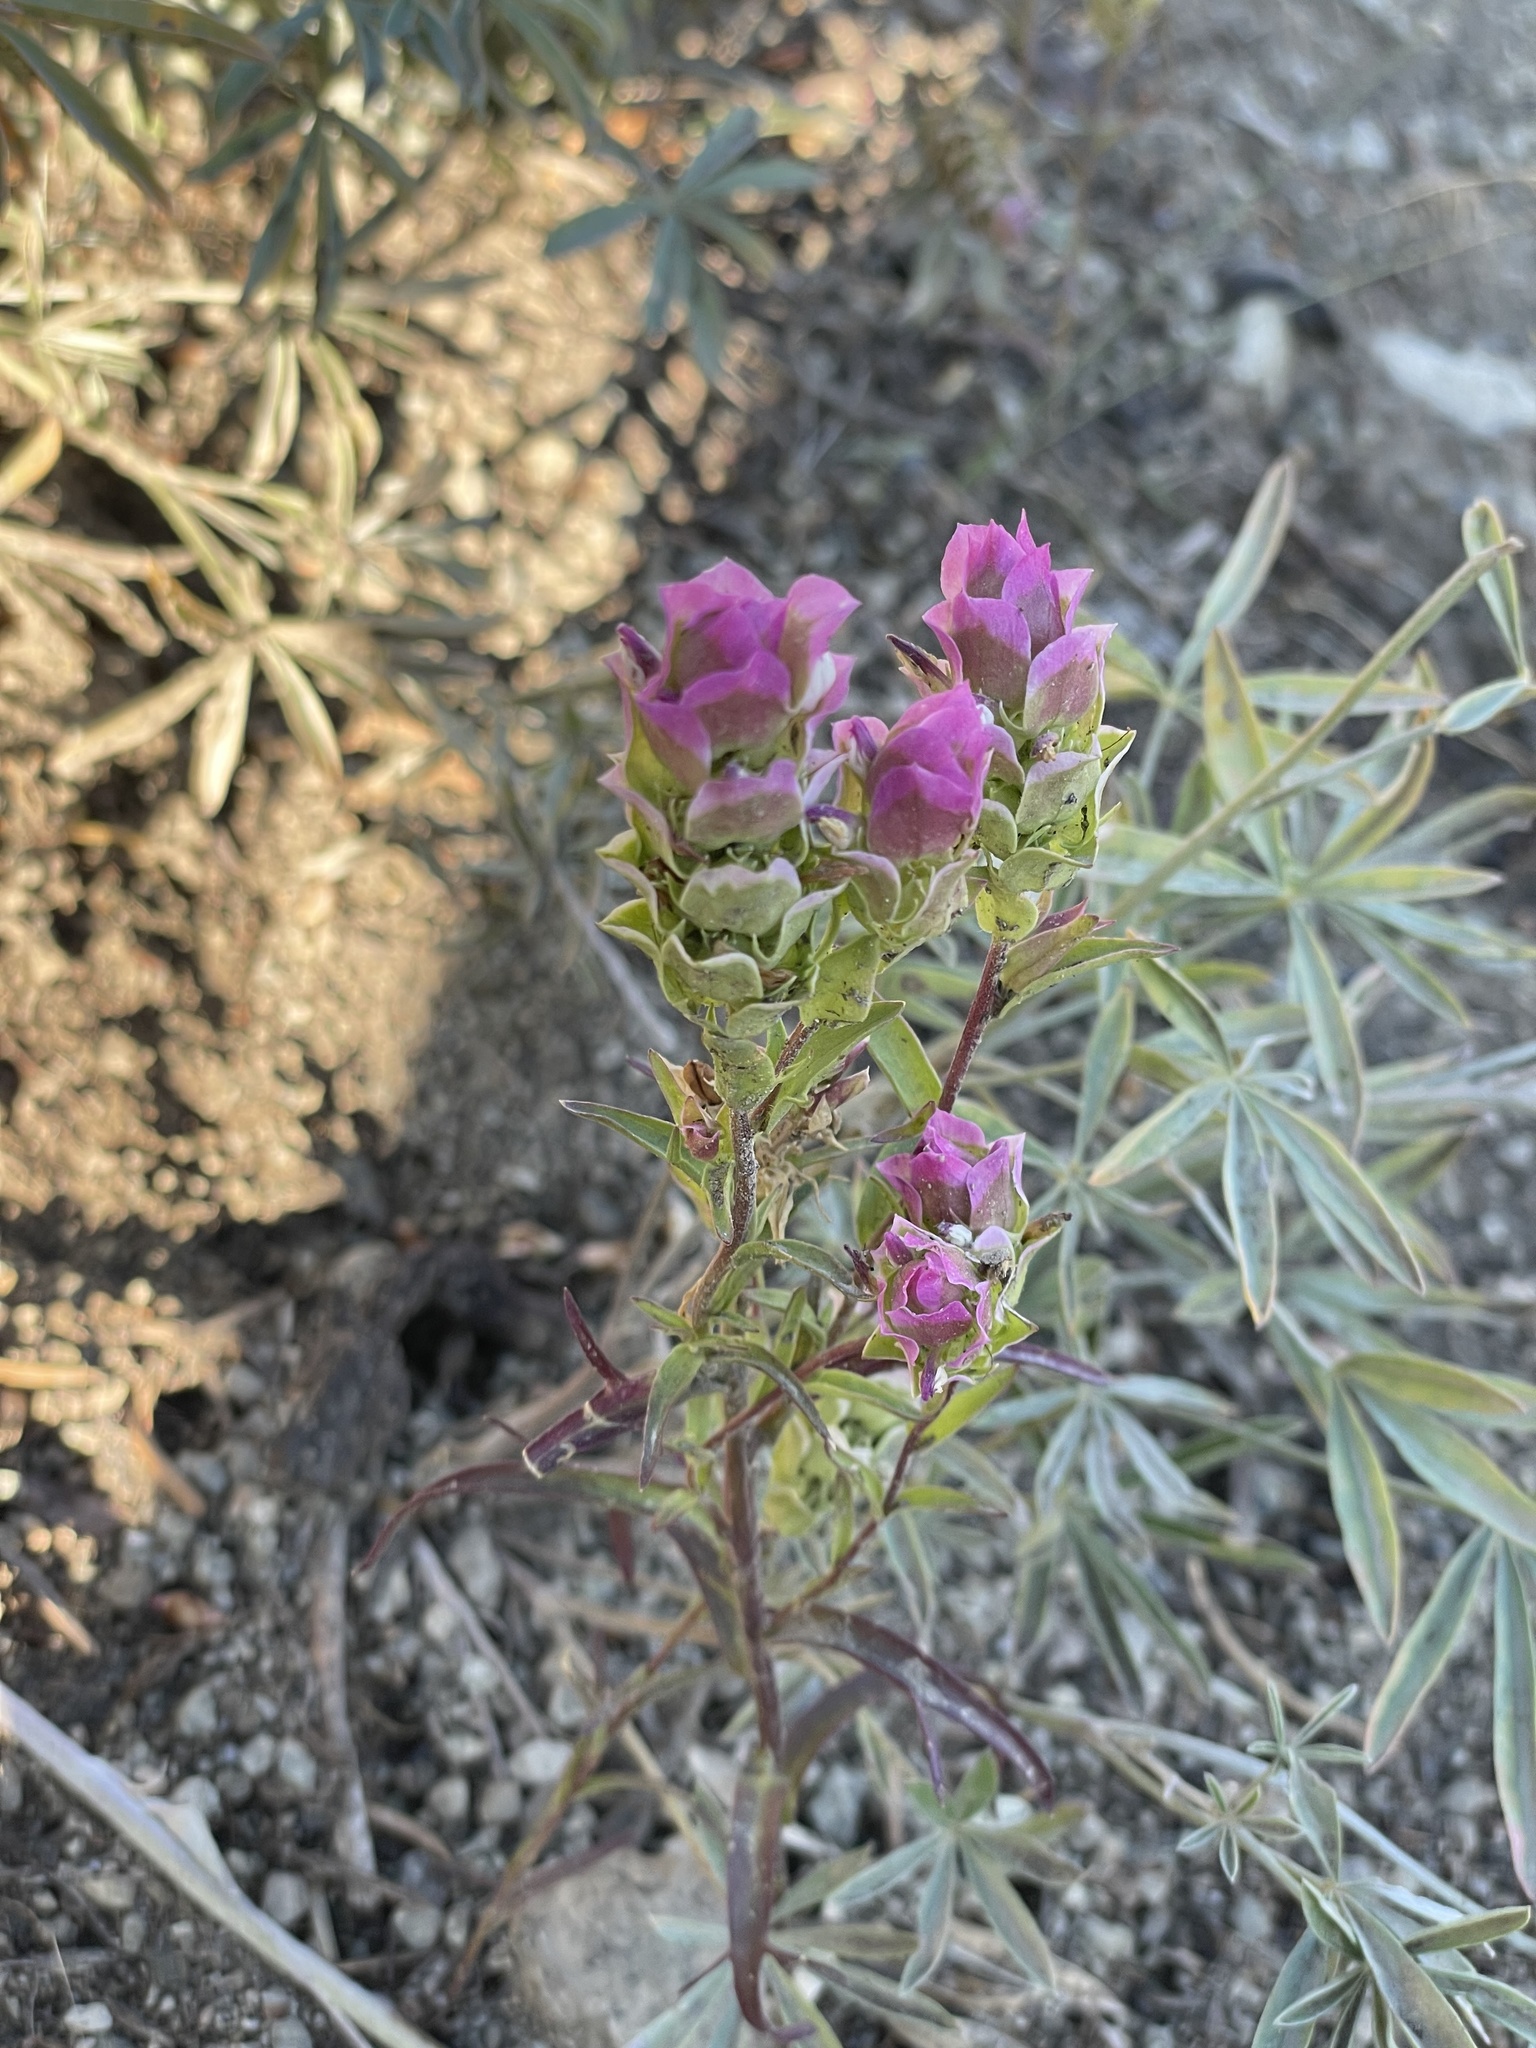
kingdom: Plantae
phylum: Tracheophyta
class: Magnoliopsida
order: Lamiales
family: Orobanchaceae
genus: Orthocarpus
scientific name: Orthocarpus cuspidatus
